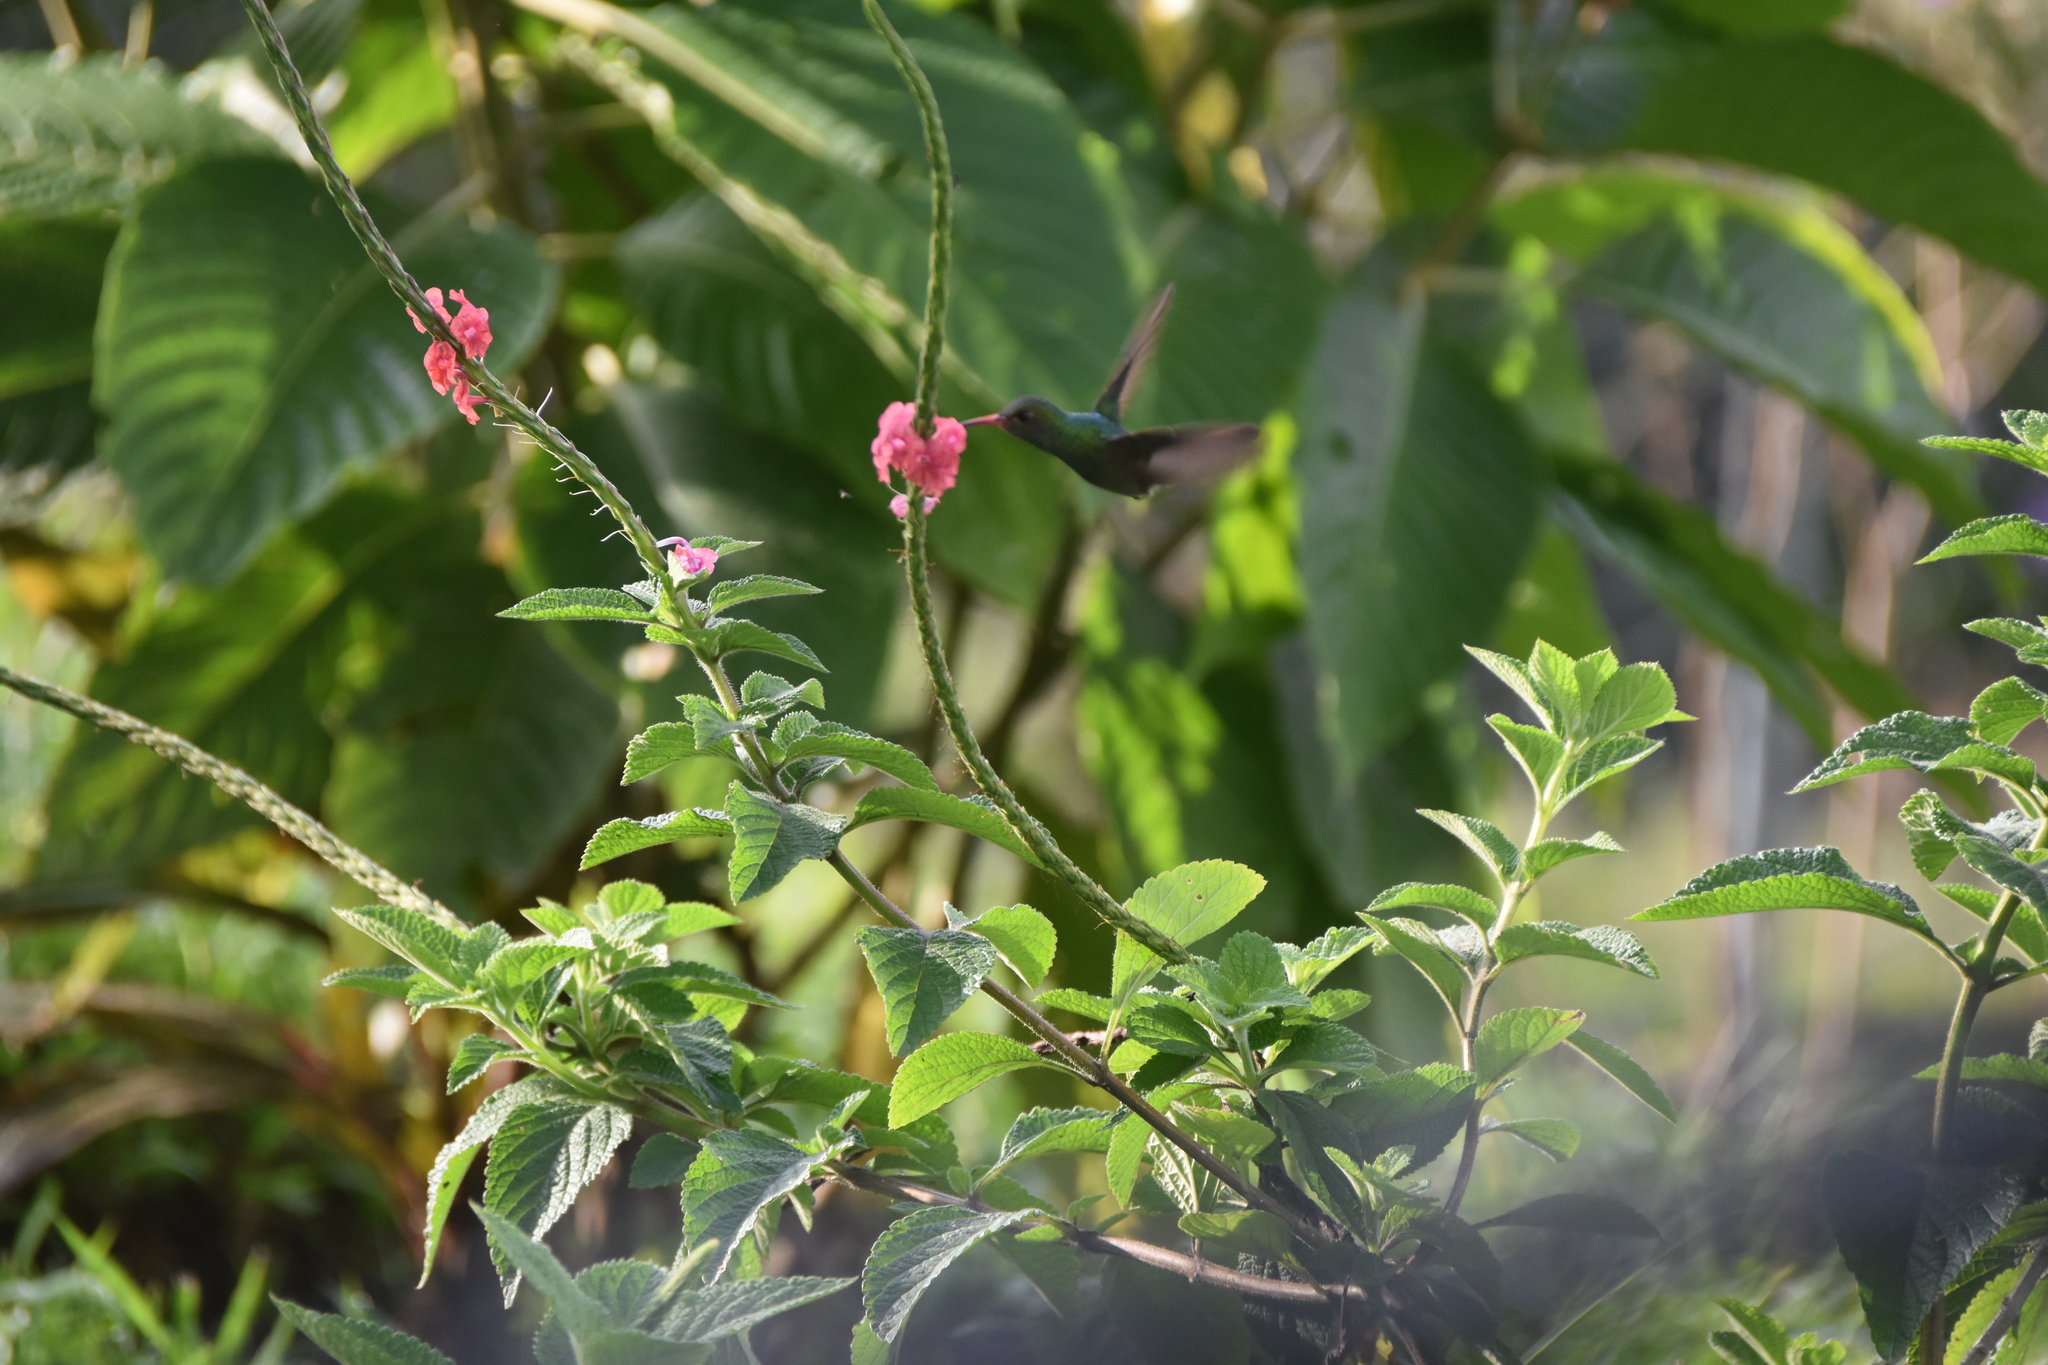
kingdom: Animalia
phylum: Chordata
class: Aves
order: Apodiformes
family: Trochilidae
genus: Amazilia
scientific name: Amazilia tzacatl
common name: Rufous-tailed hummingbird
